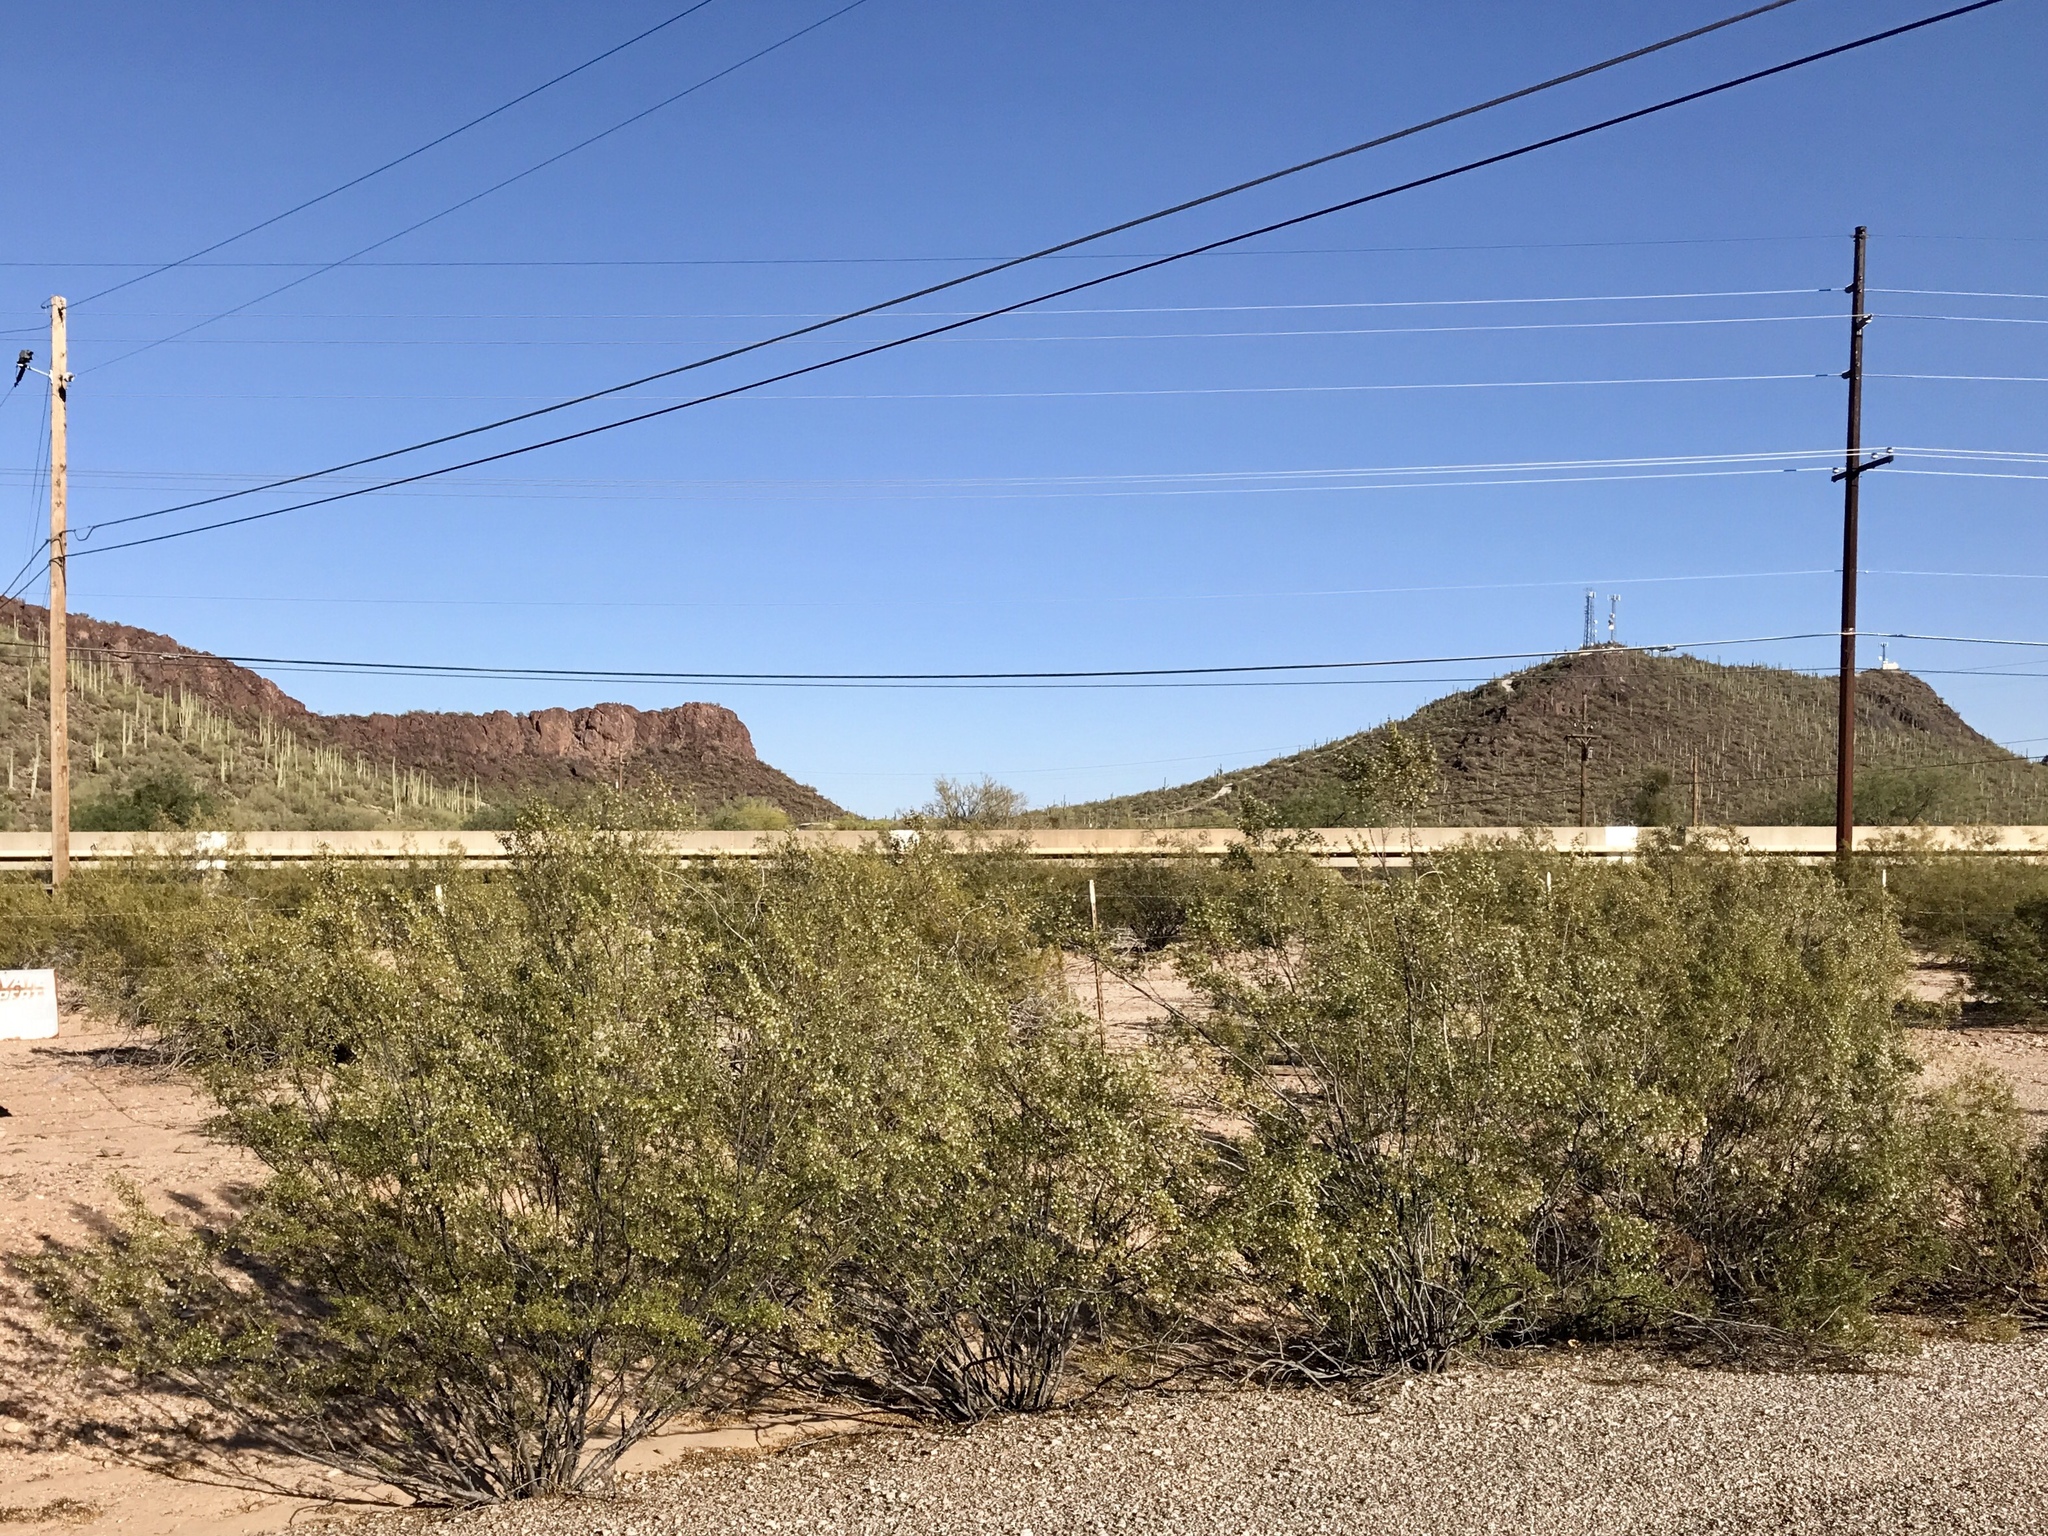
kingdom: Plantae
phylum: Tracheophyta
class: Magnoliopsida
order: Zygophyllales
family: Zygophyllaceae
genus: Larrea
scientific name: Larrea tridentata
